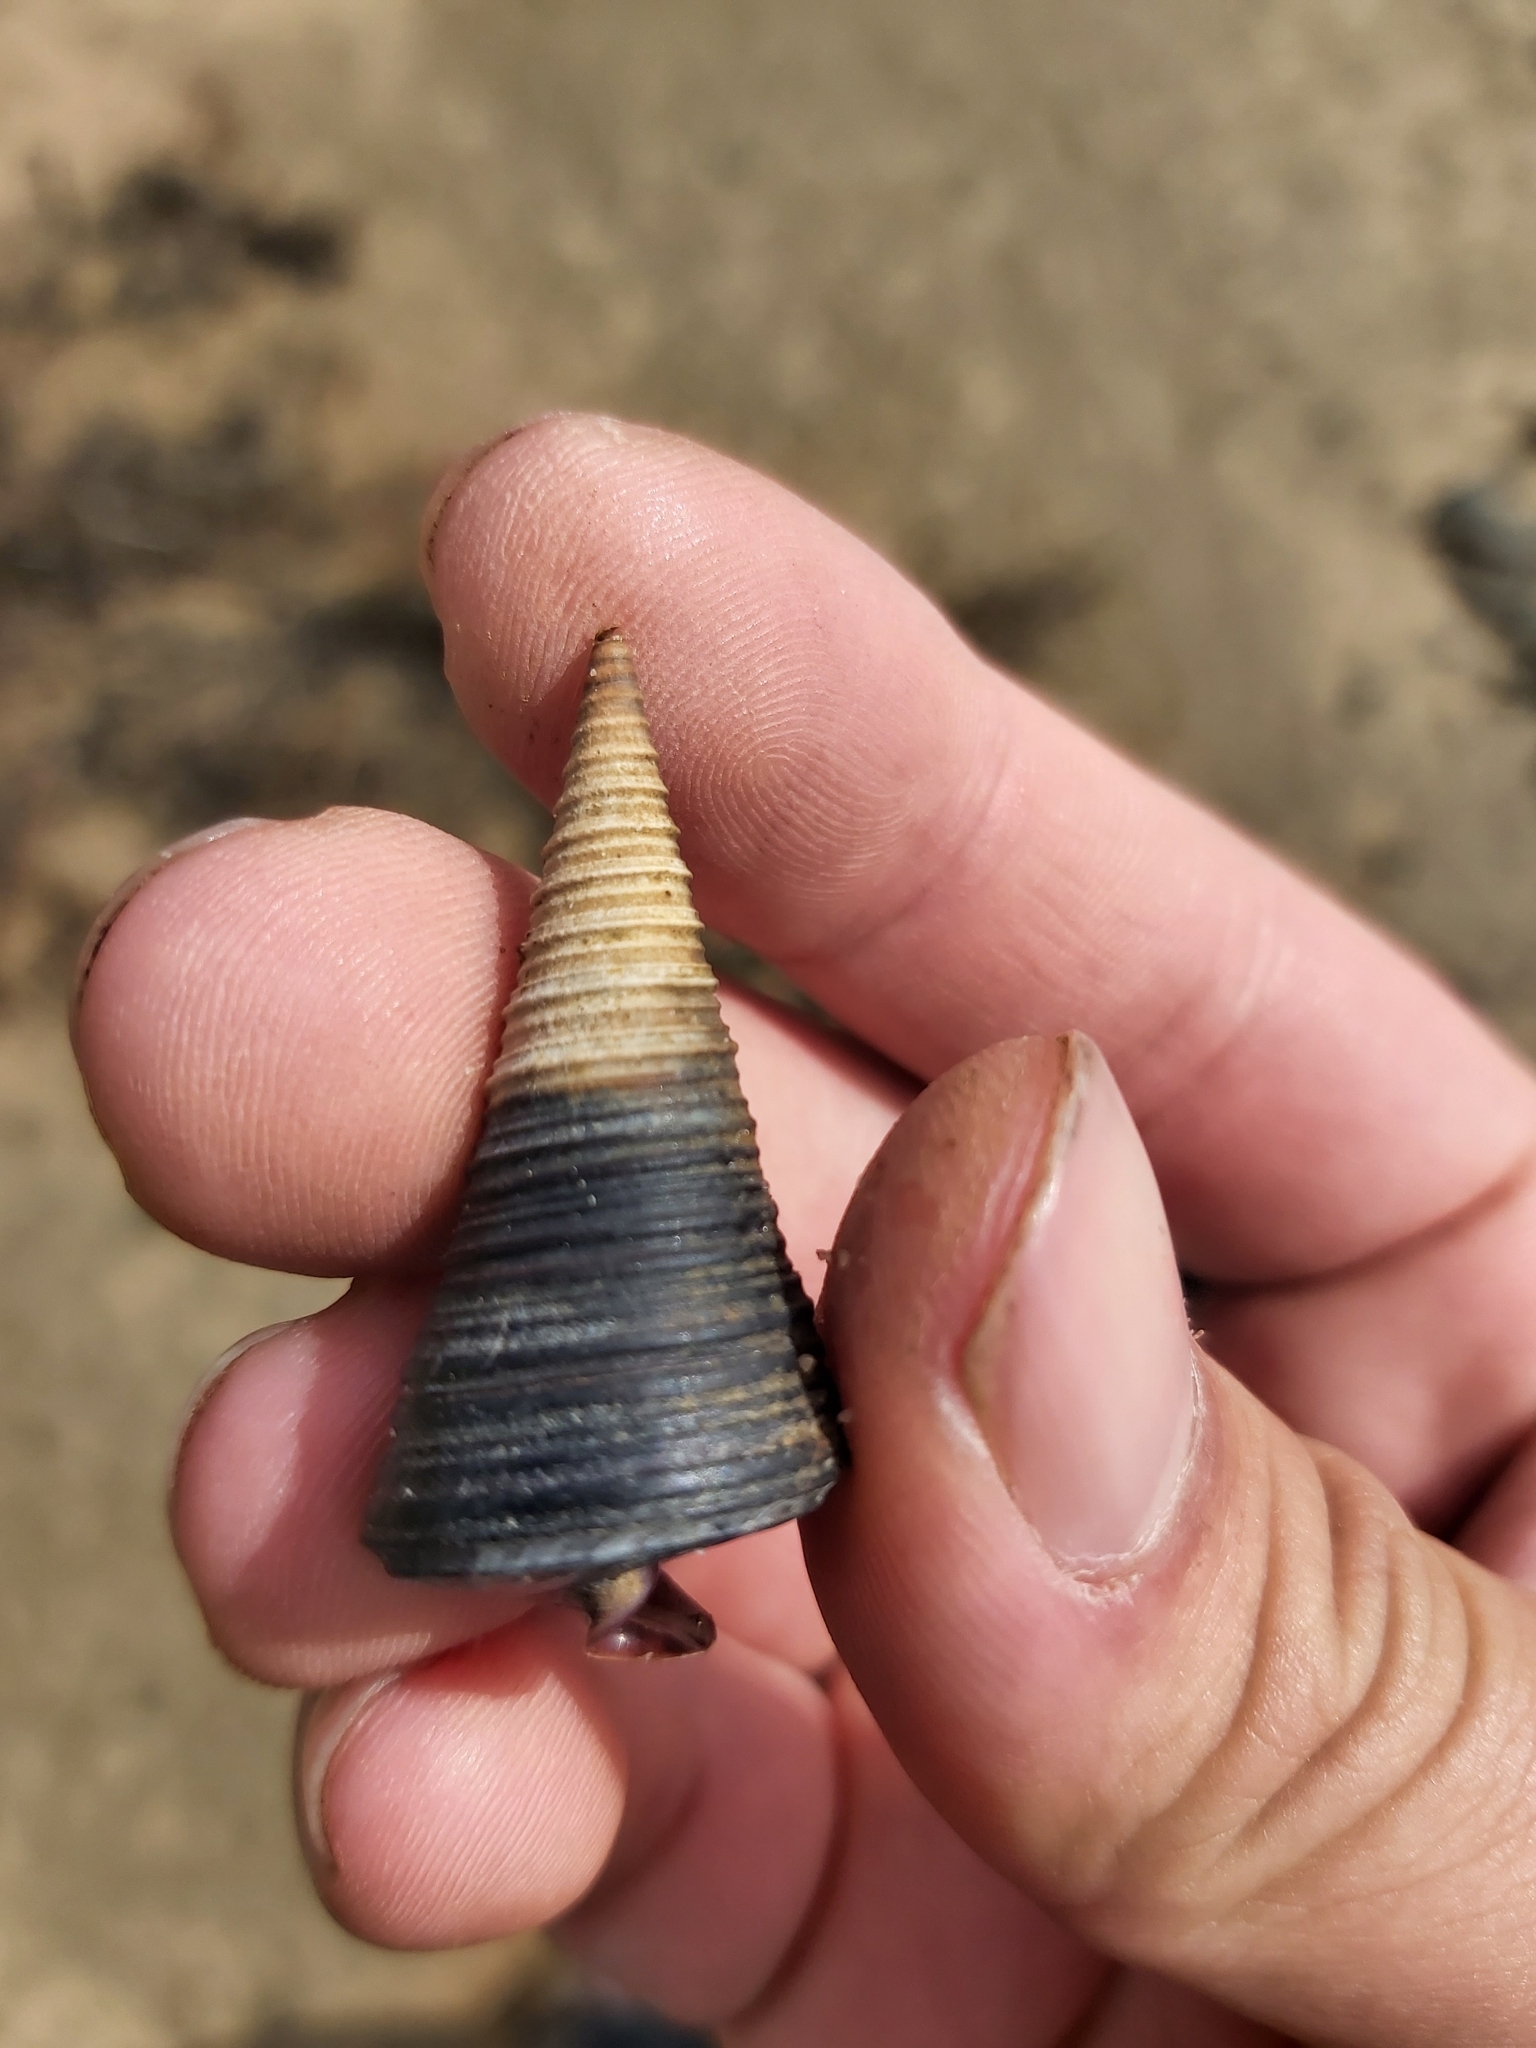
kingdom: Animalia
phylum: Mollusca
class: Gastropoda
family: Potamididae
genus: Telescopium
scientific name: Telescopium telescopium
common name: Telescope creeper
